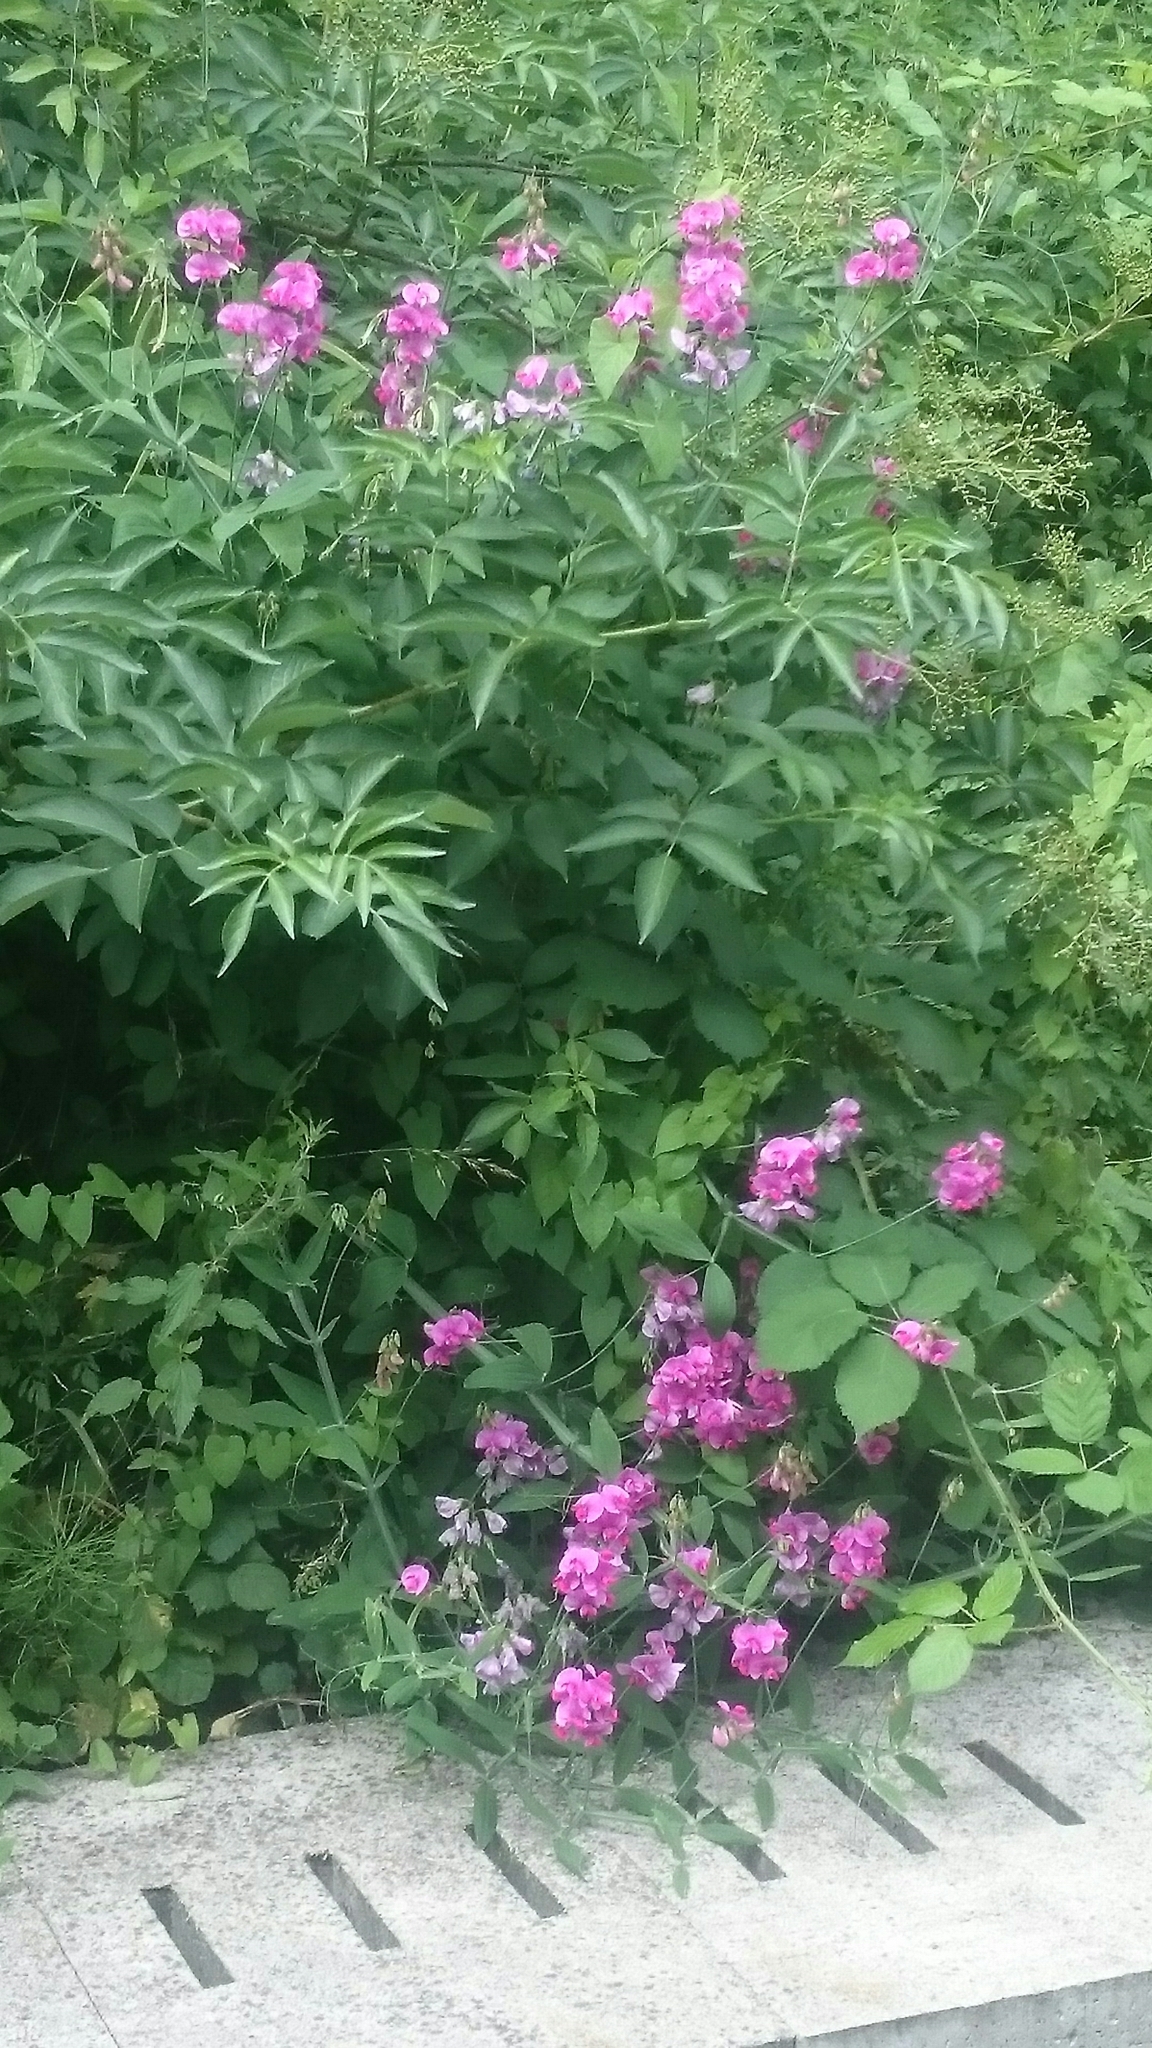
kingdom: Plantae
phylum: Tracheophyta
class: Magnoliopsida
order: Fabales
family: Fabaceae
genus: Lathyrus
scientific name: Lathyrus latifolius
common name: Perennial pea
